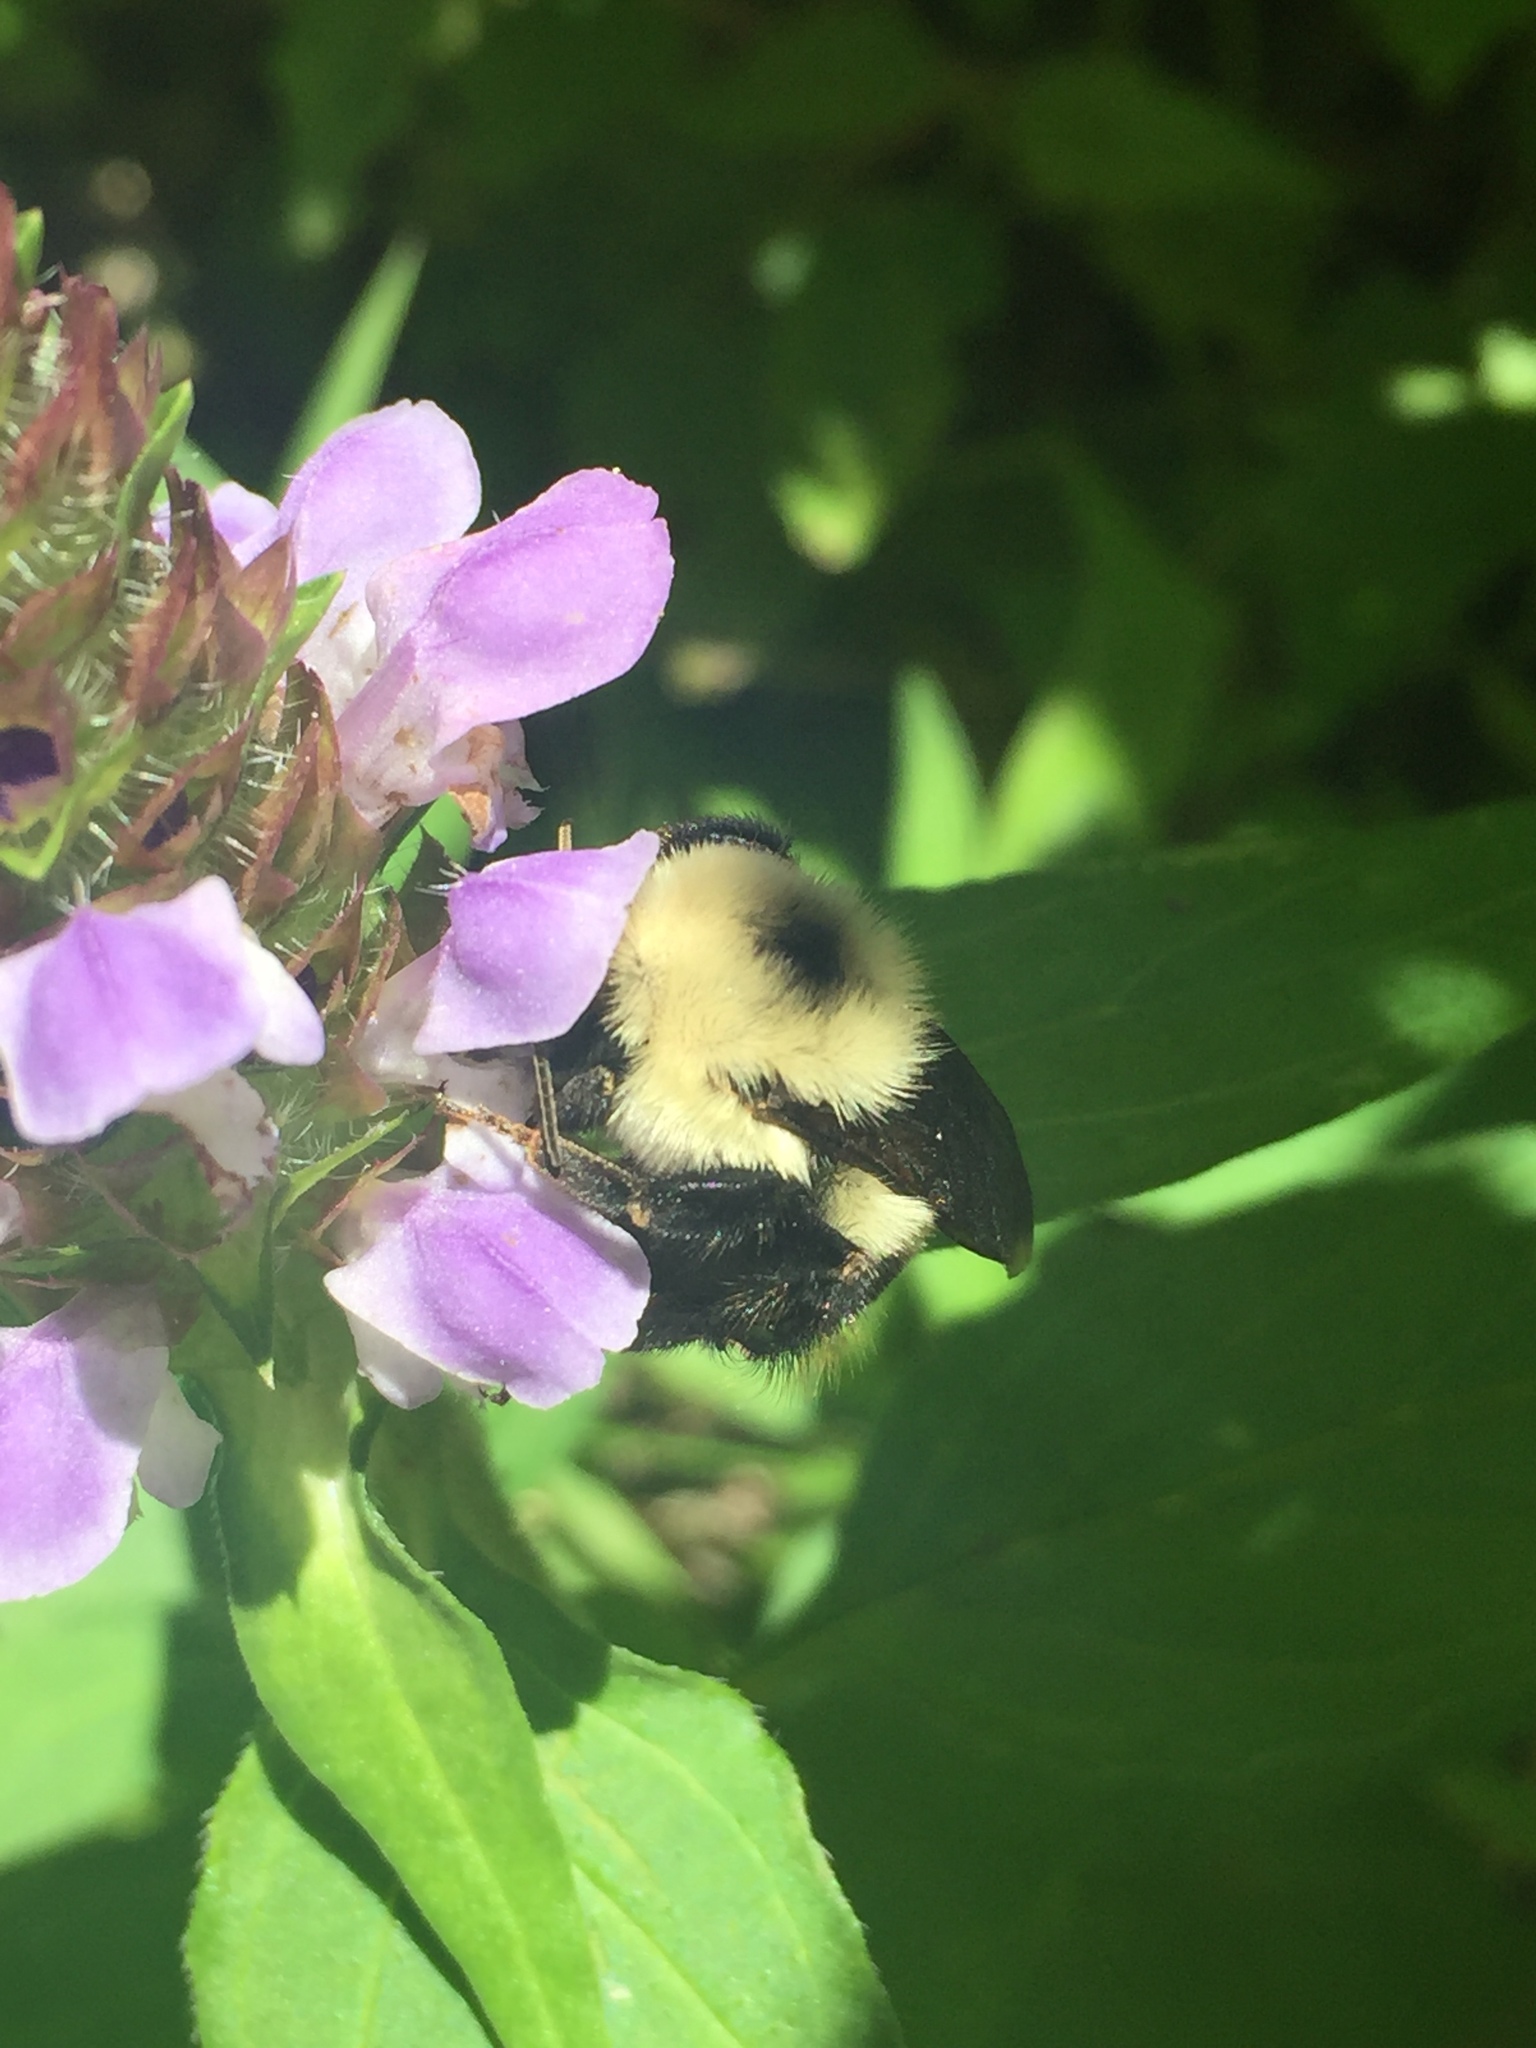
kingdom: Plantae
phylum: Tracheophyta
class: Magnoliopsida
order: Lamiales
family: Lamiaceae
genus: Prunella
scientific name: Prunella vulgaris
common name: Heal-all
